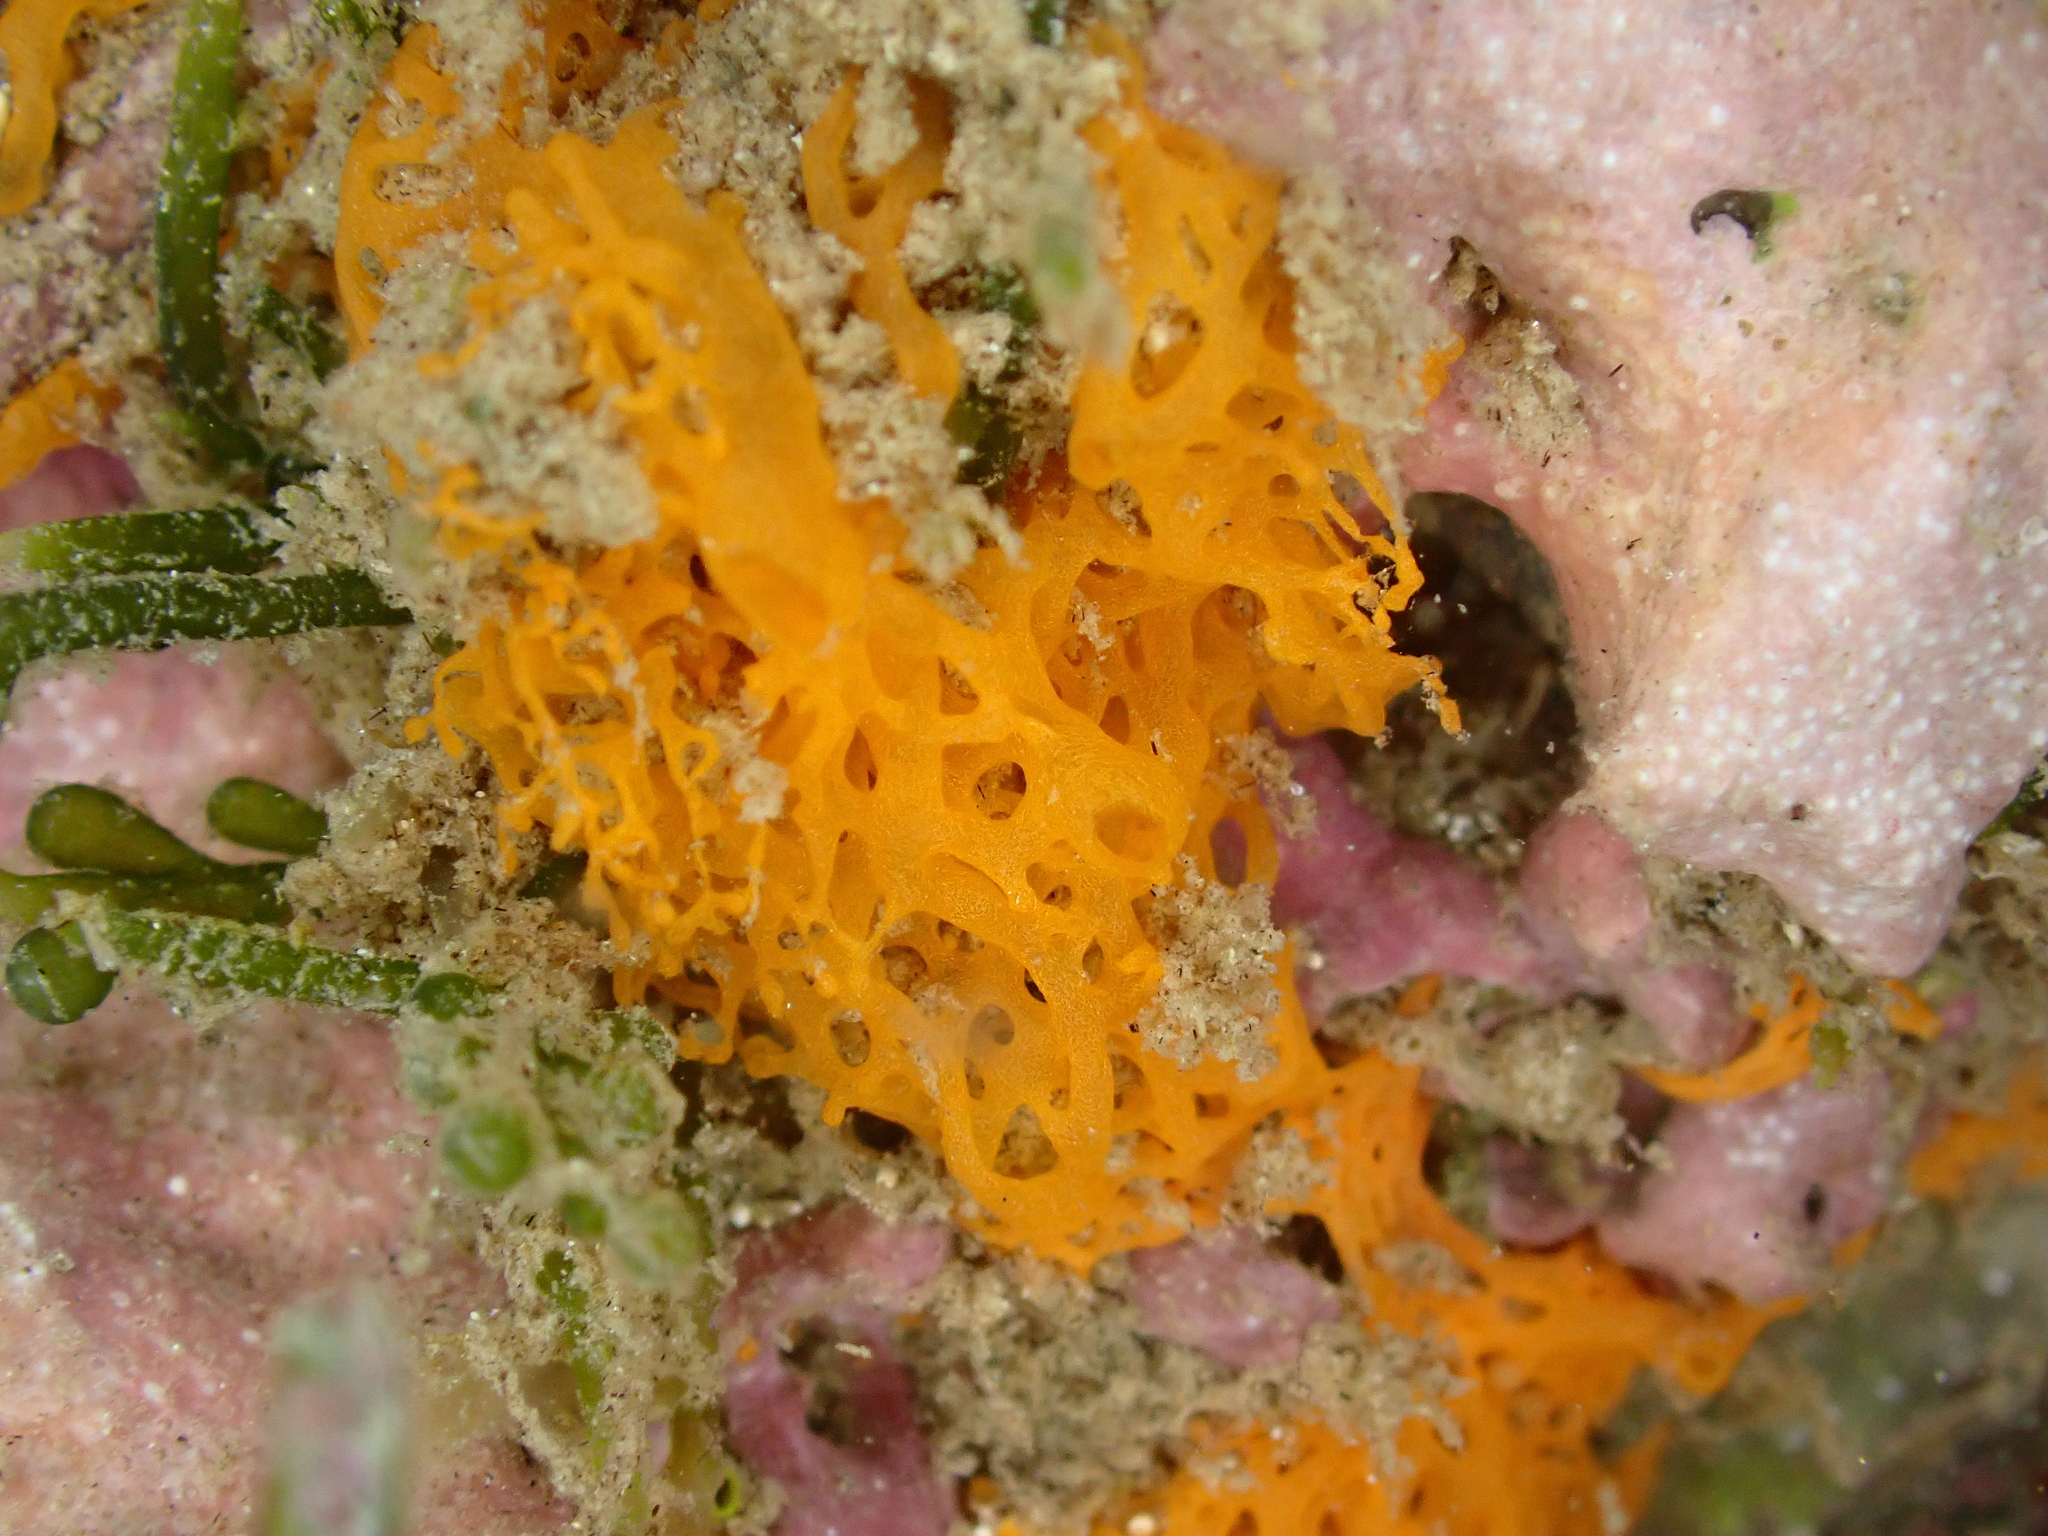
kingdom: Animalia
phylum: Porifera
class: Calcarea
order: Clathrinida
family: Clathrinidae
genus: Clathrina
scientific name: Clathrina rubra
